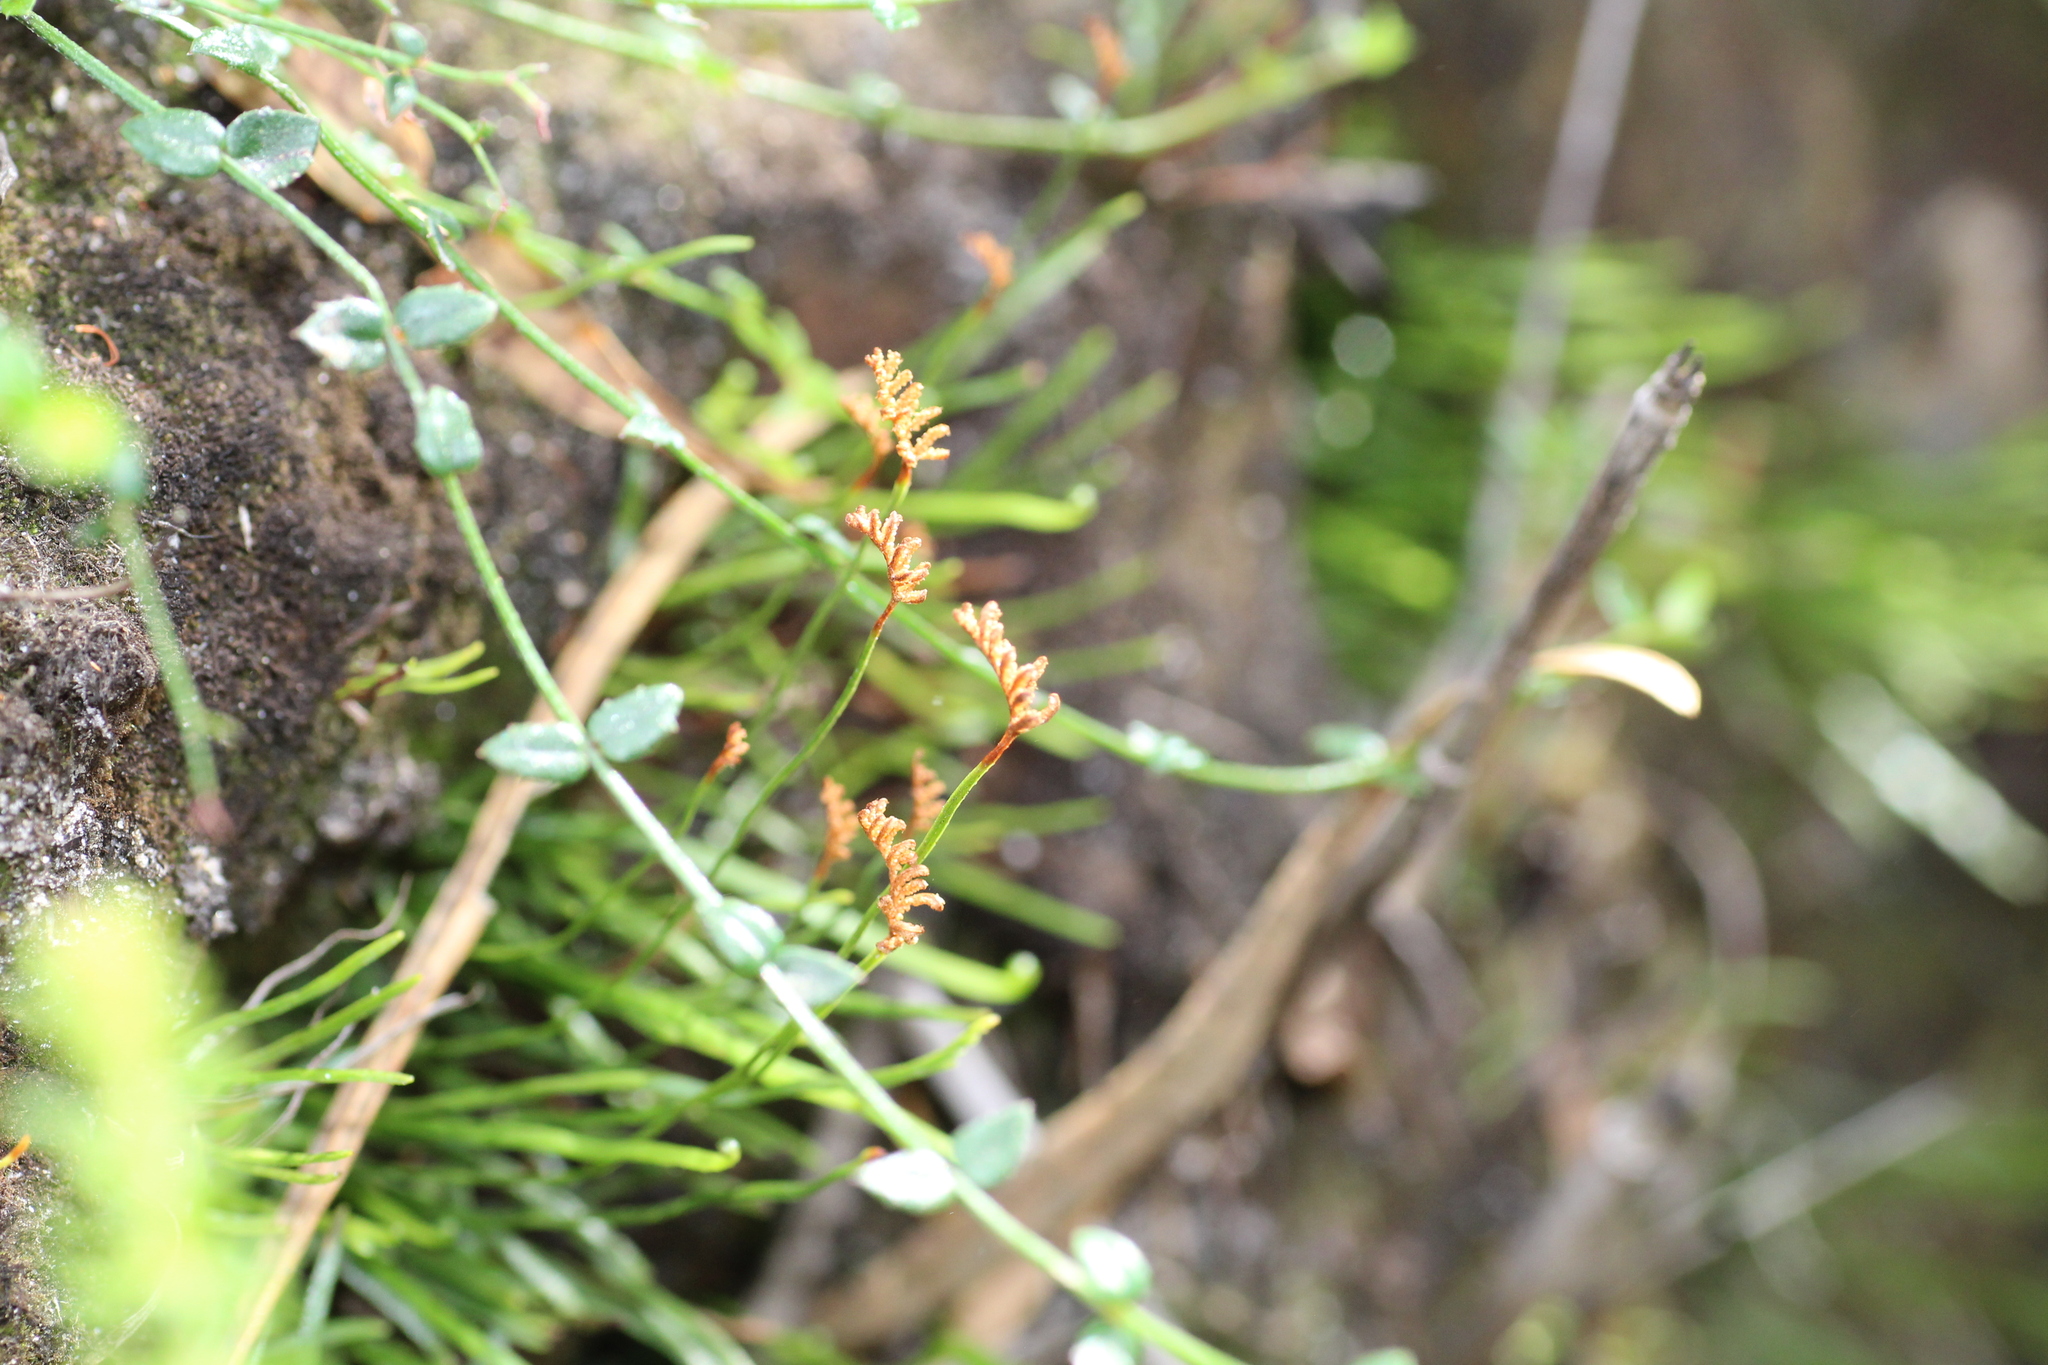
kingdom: Plantae
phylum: Tracheophyta
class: Polypodiopsida
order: Schizaeales
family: Schizaeaceae
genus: Microschizaea
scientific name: Microschizaea rupestris
